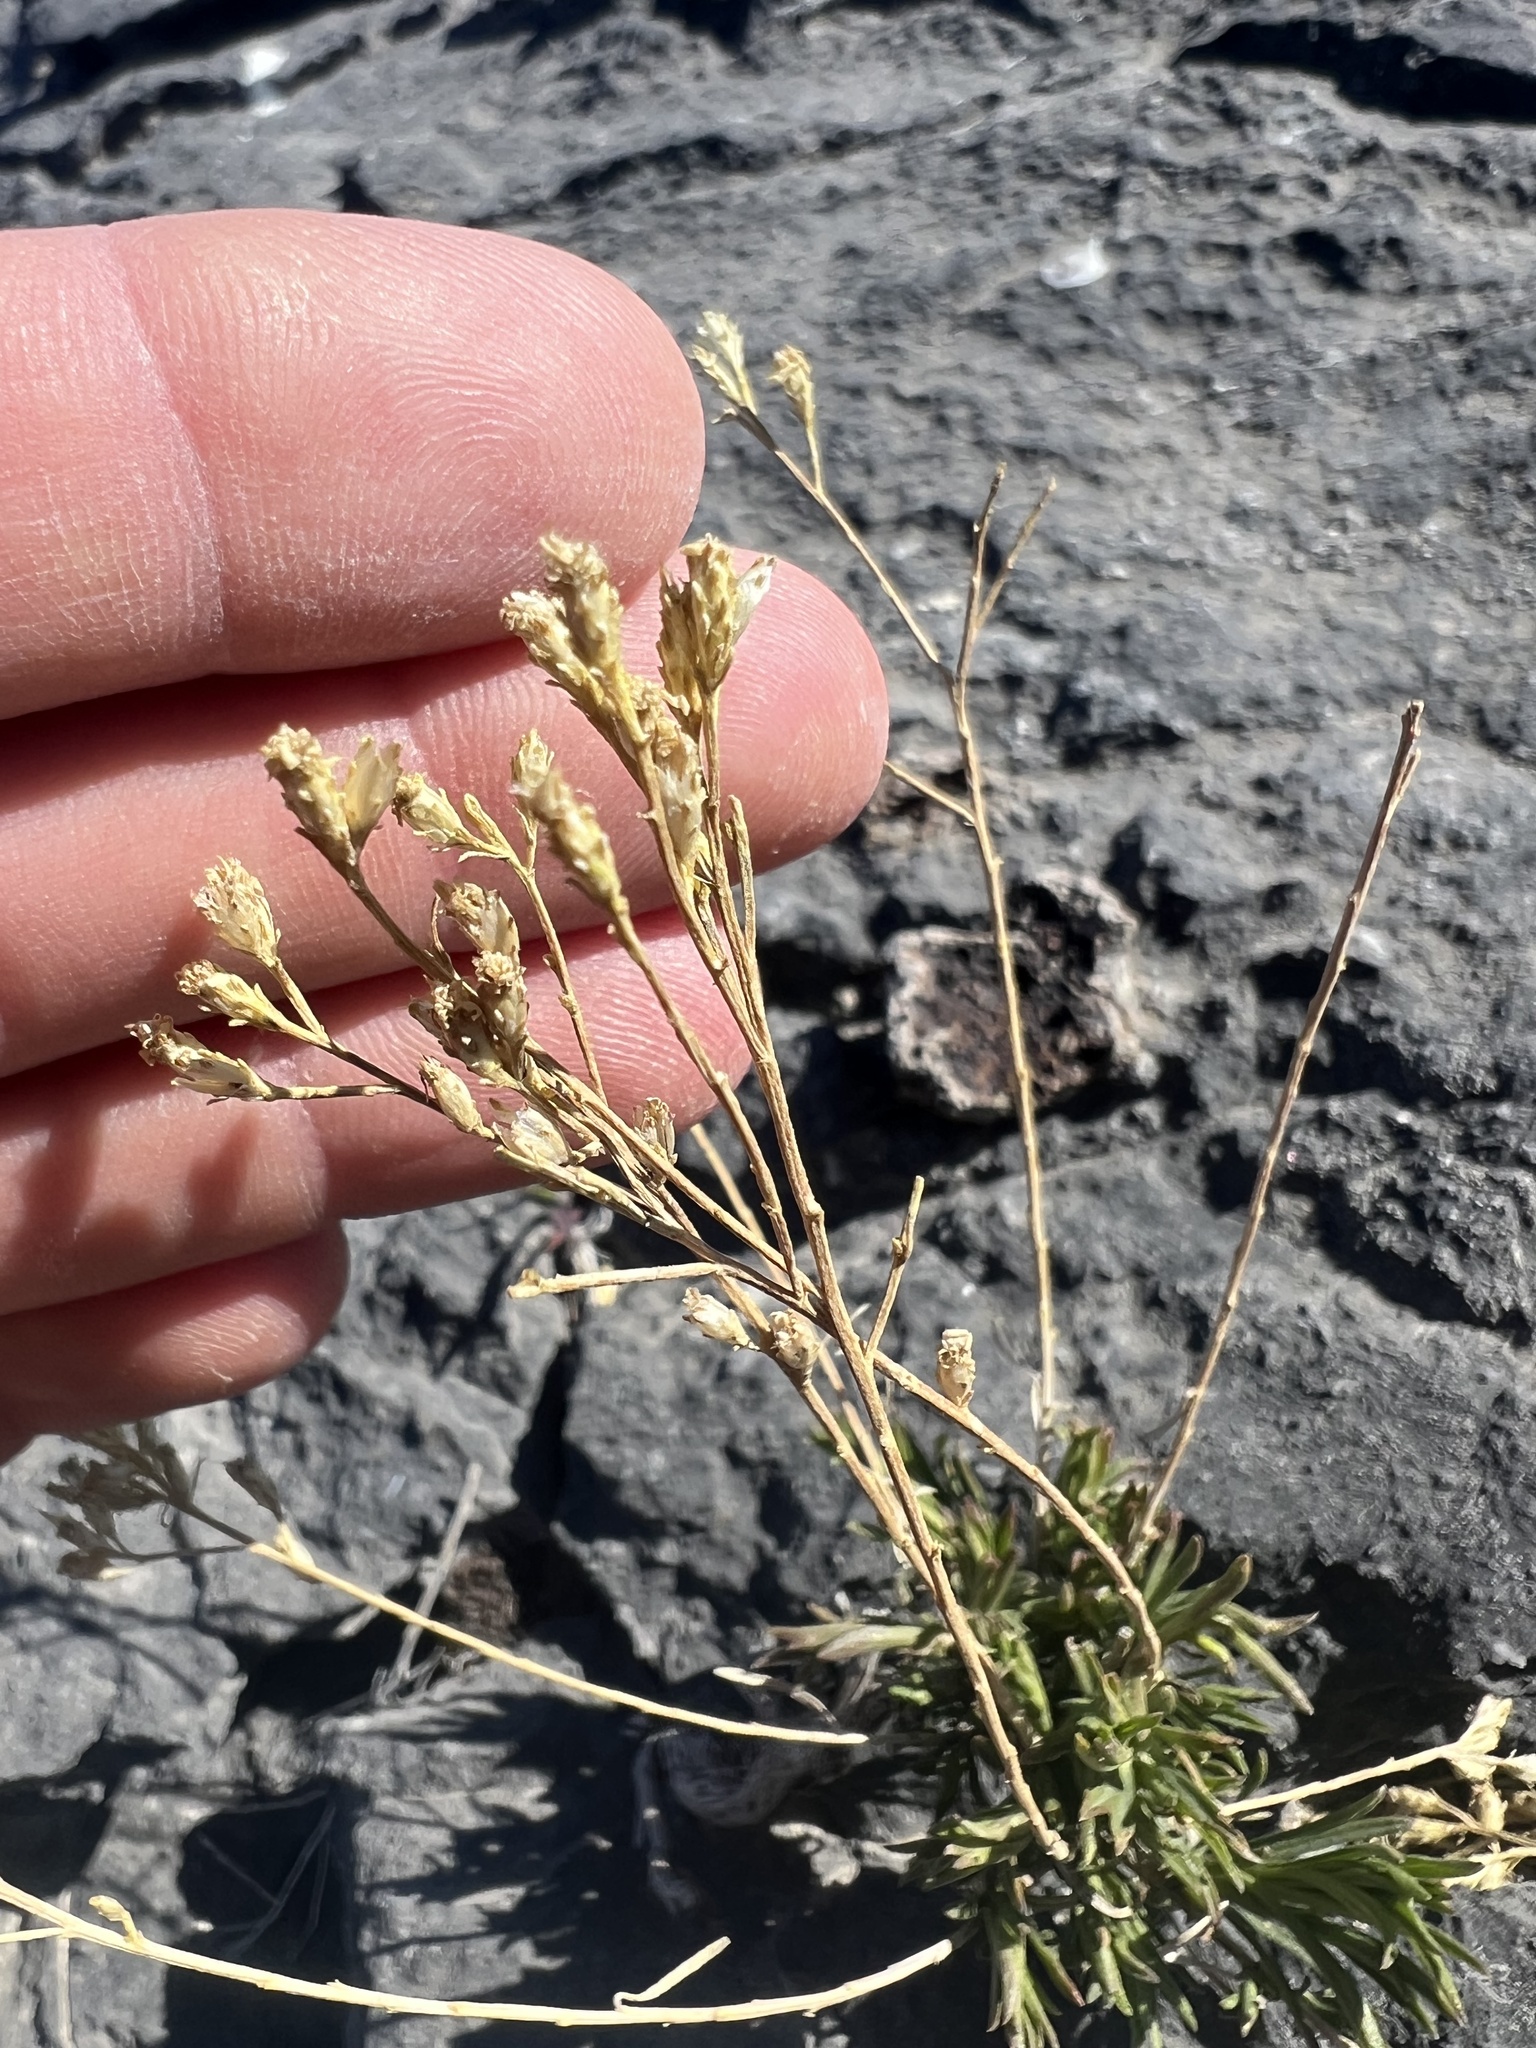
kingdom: Plantae
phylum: Tracheophyta
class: Magnoliopsida
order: Asterales
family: Asteraceae
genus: Gutierrezia
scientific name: Gutierrezia sarothrae
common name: Broom snakeweed
